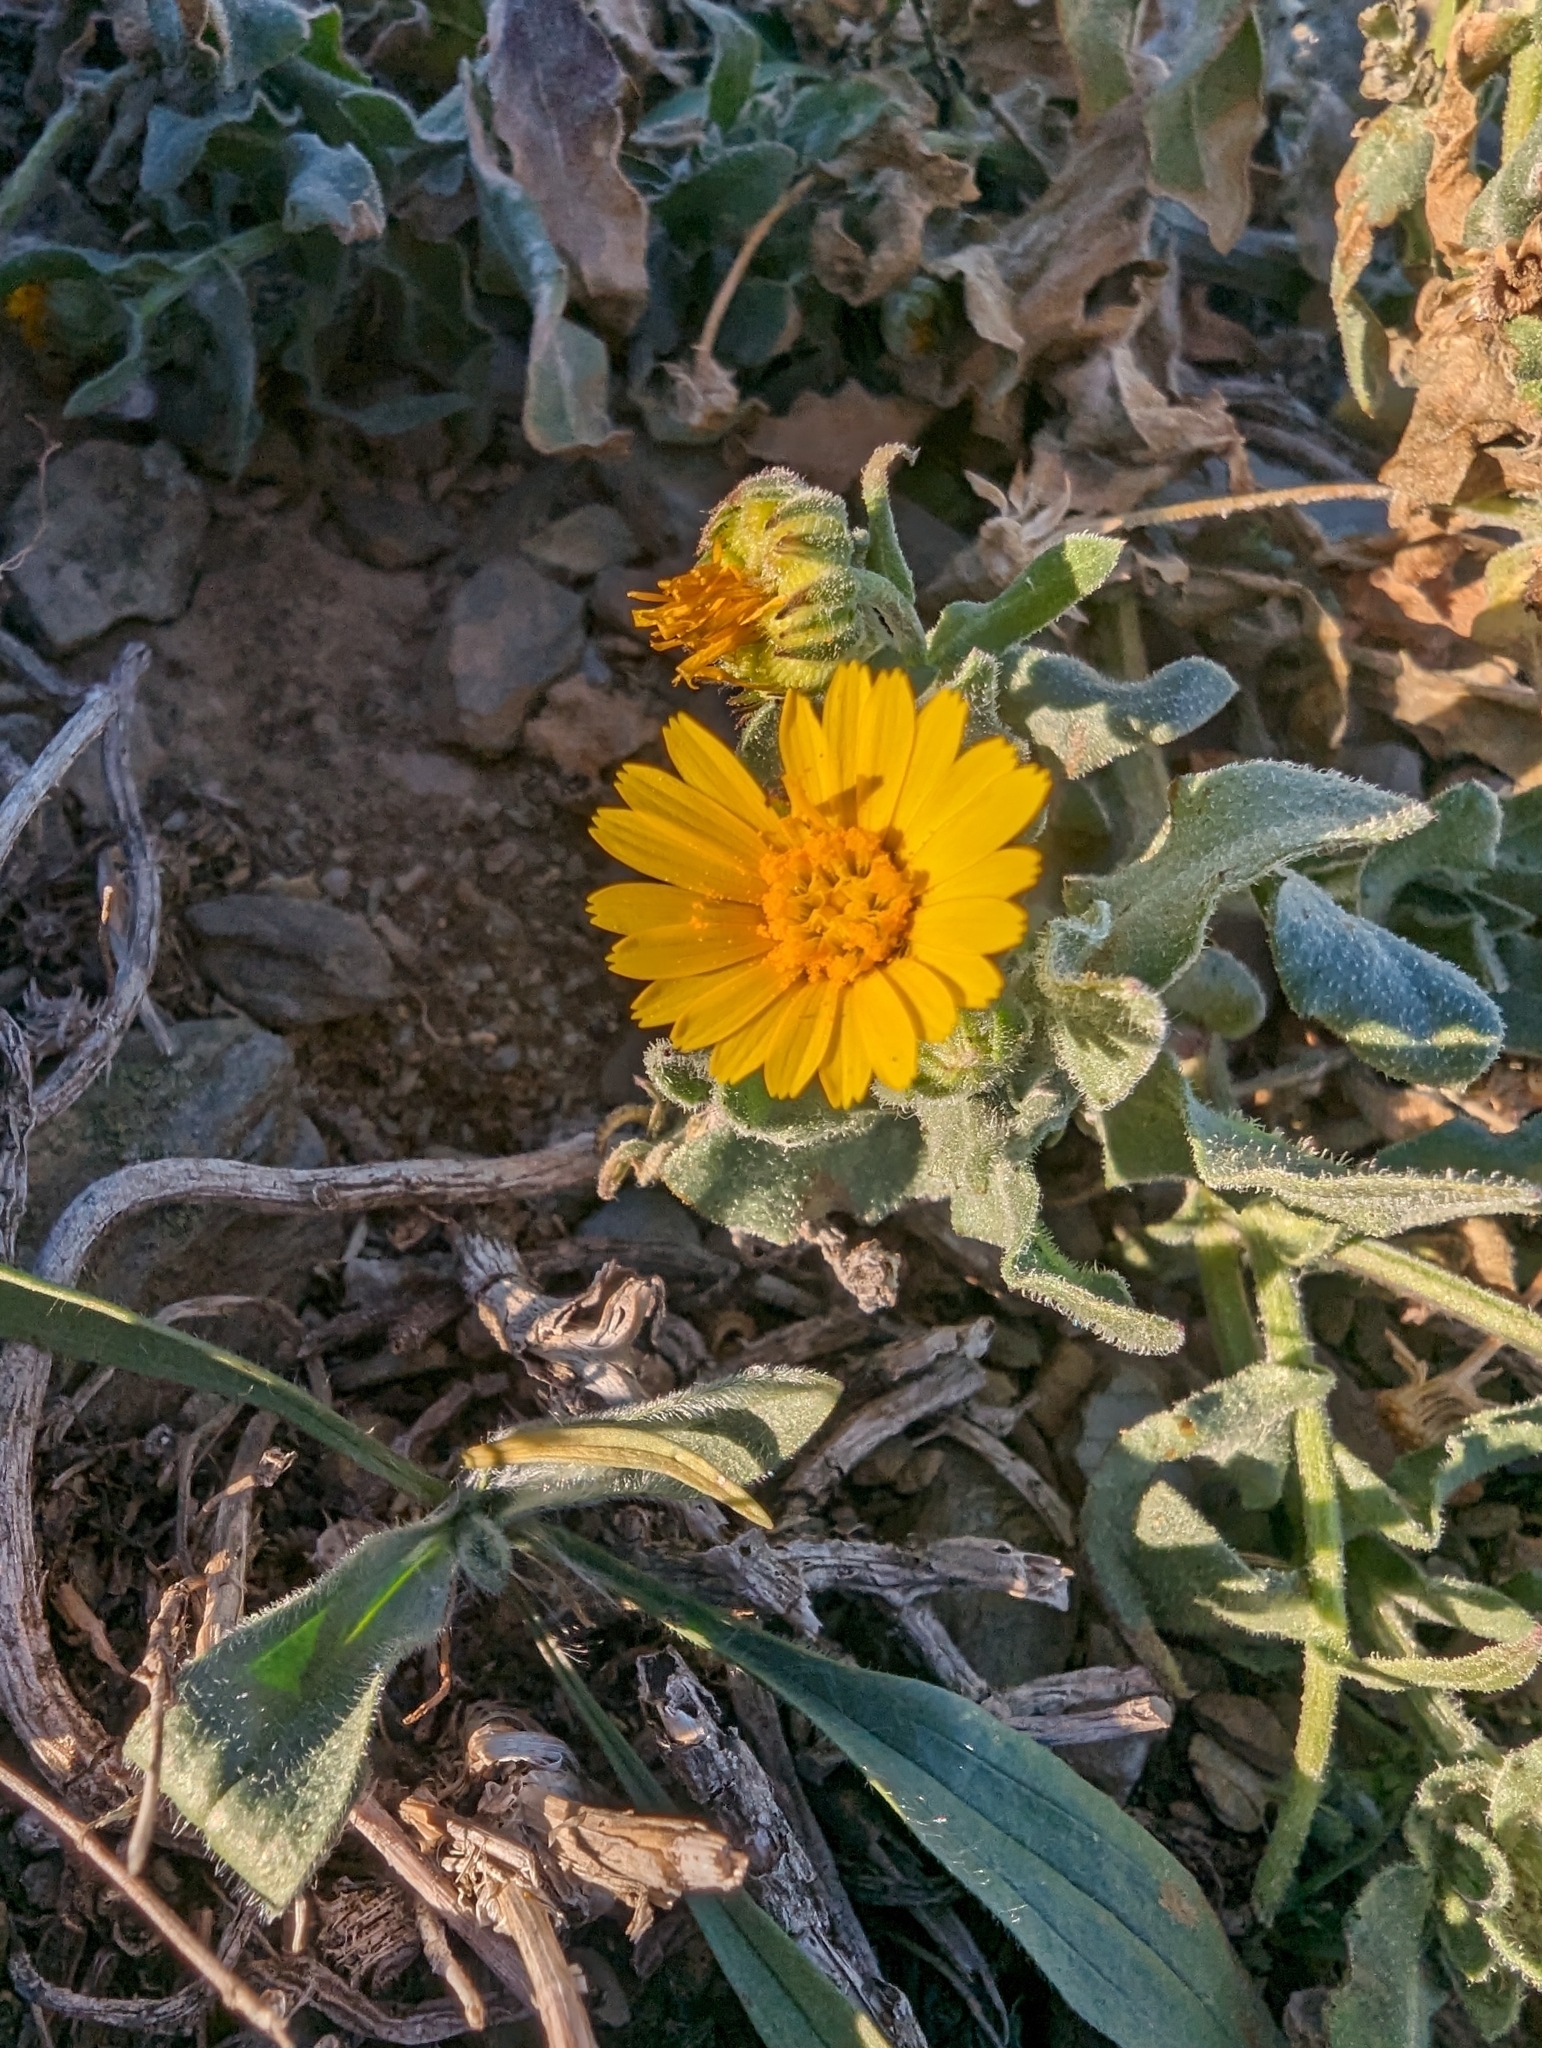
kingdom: Plantae
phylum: Tracheophyta
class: Magnoliopsida
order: Asterales
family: Asteraceae
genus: Calendula
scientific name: Calendula arvensis
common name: Field marigold
